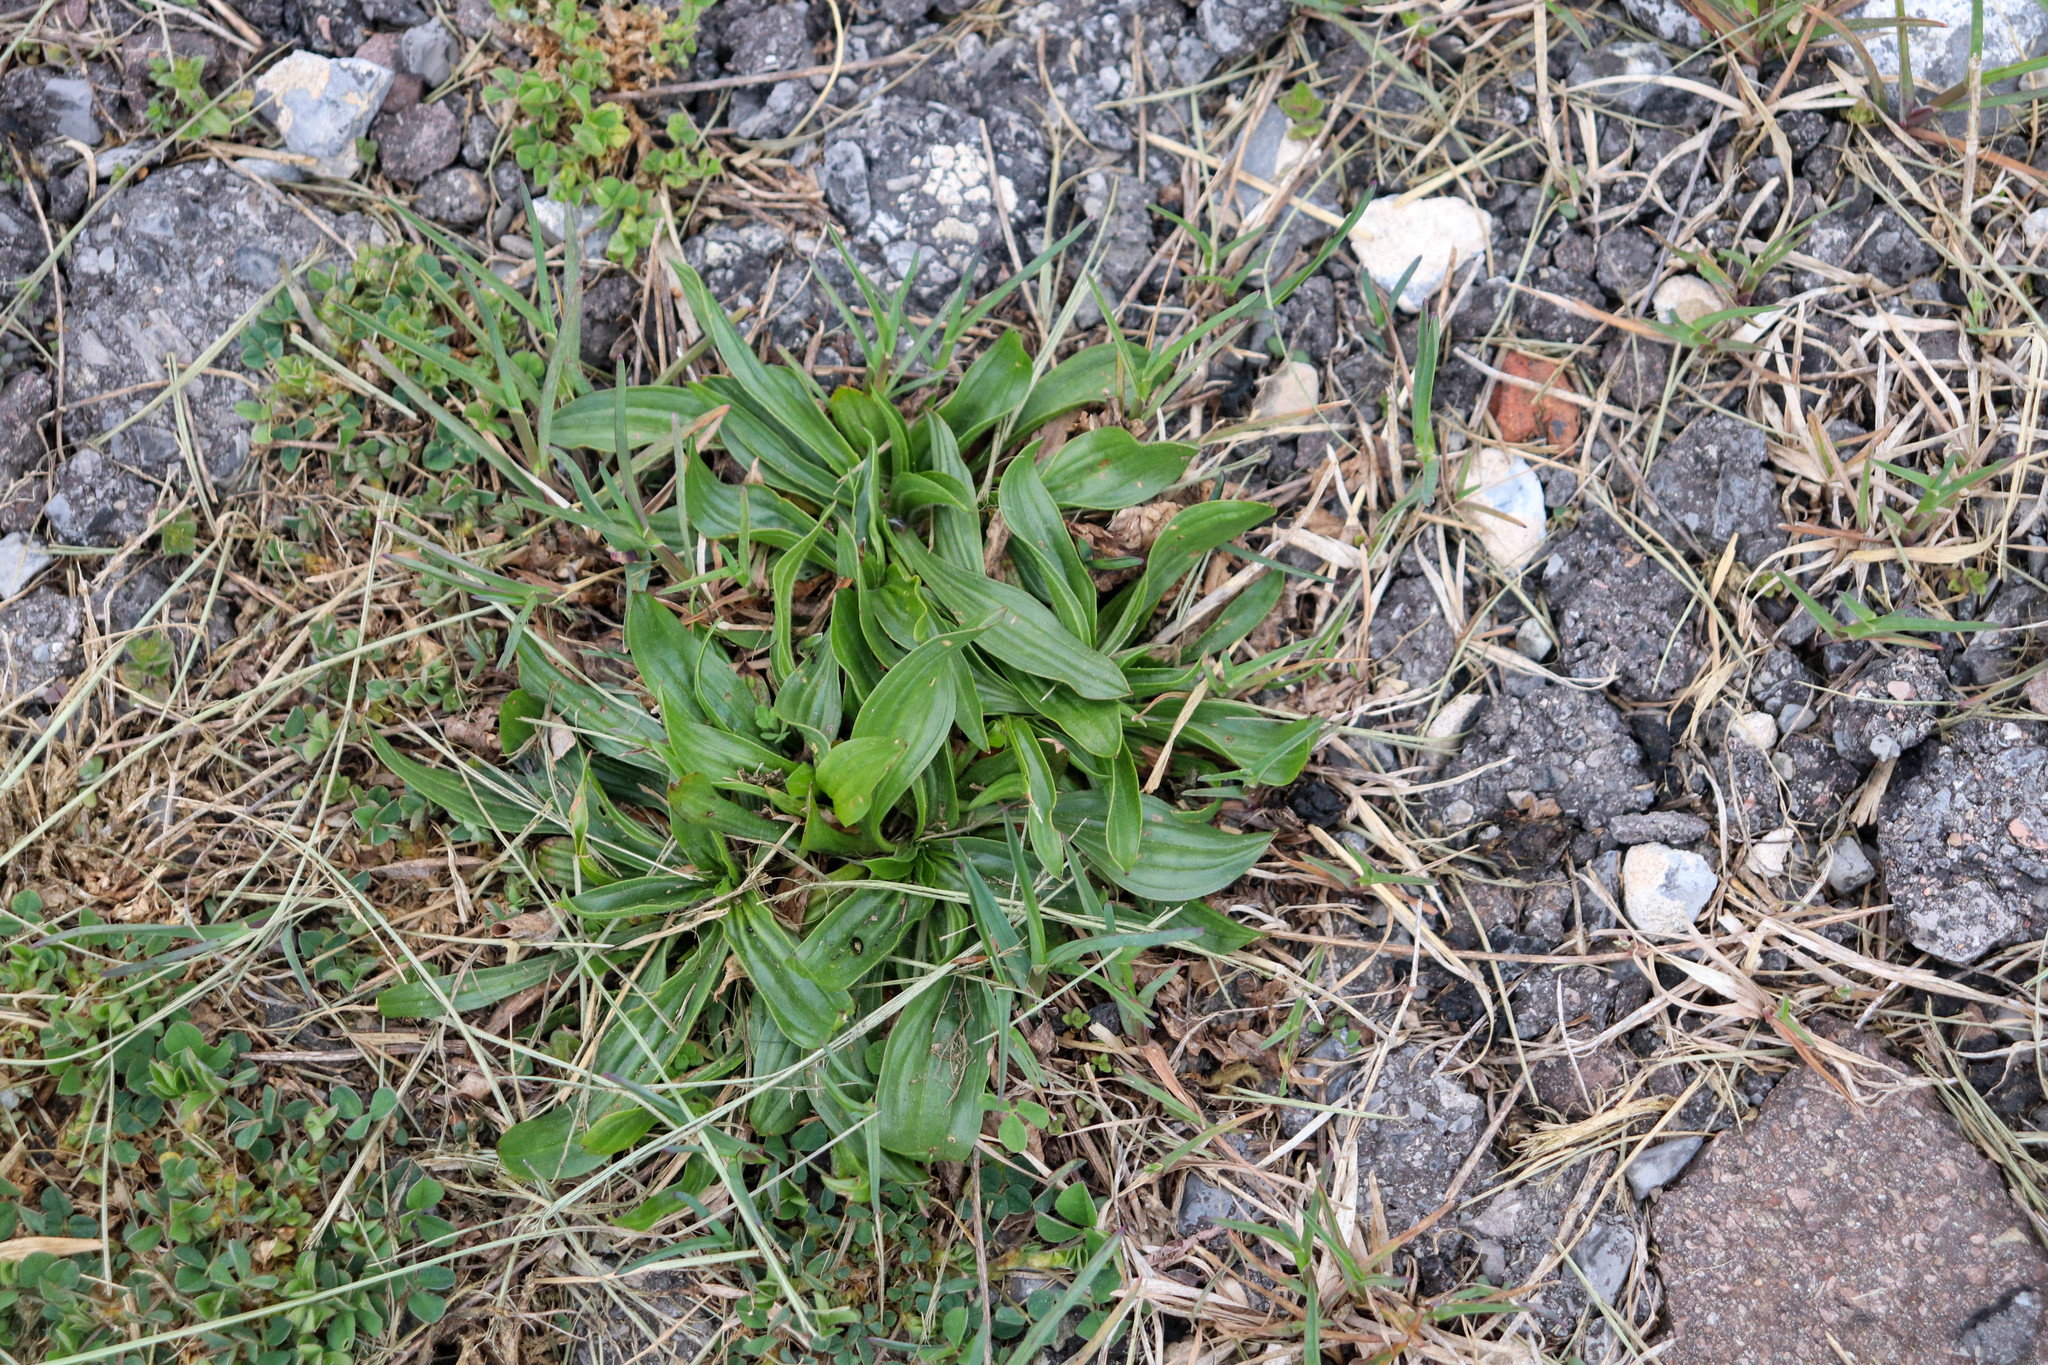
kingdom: Plantae
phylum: Tracheophyta
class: Magnoliopsida
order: Lamiales
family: Plantaginaceae
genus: Plantago
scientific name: Plantago lanceolata
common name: Ribwort plantain
